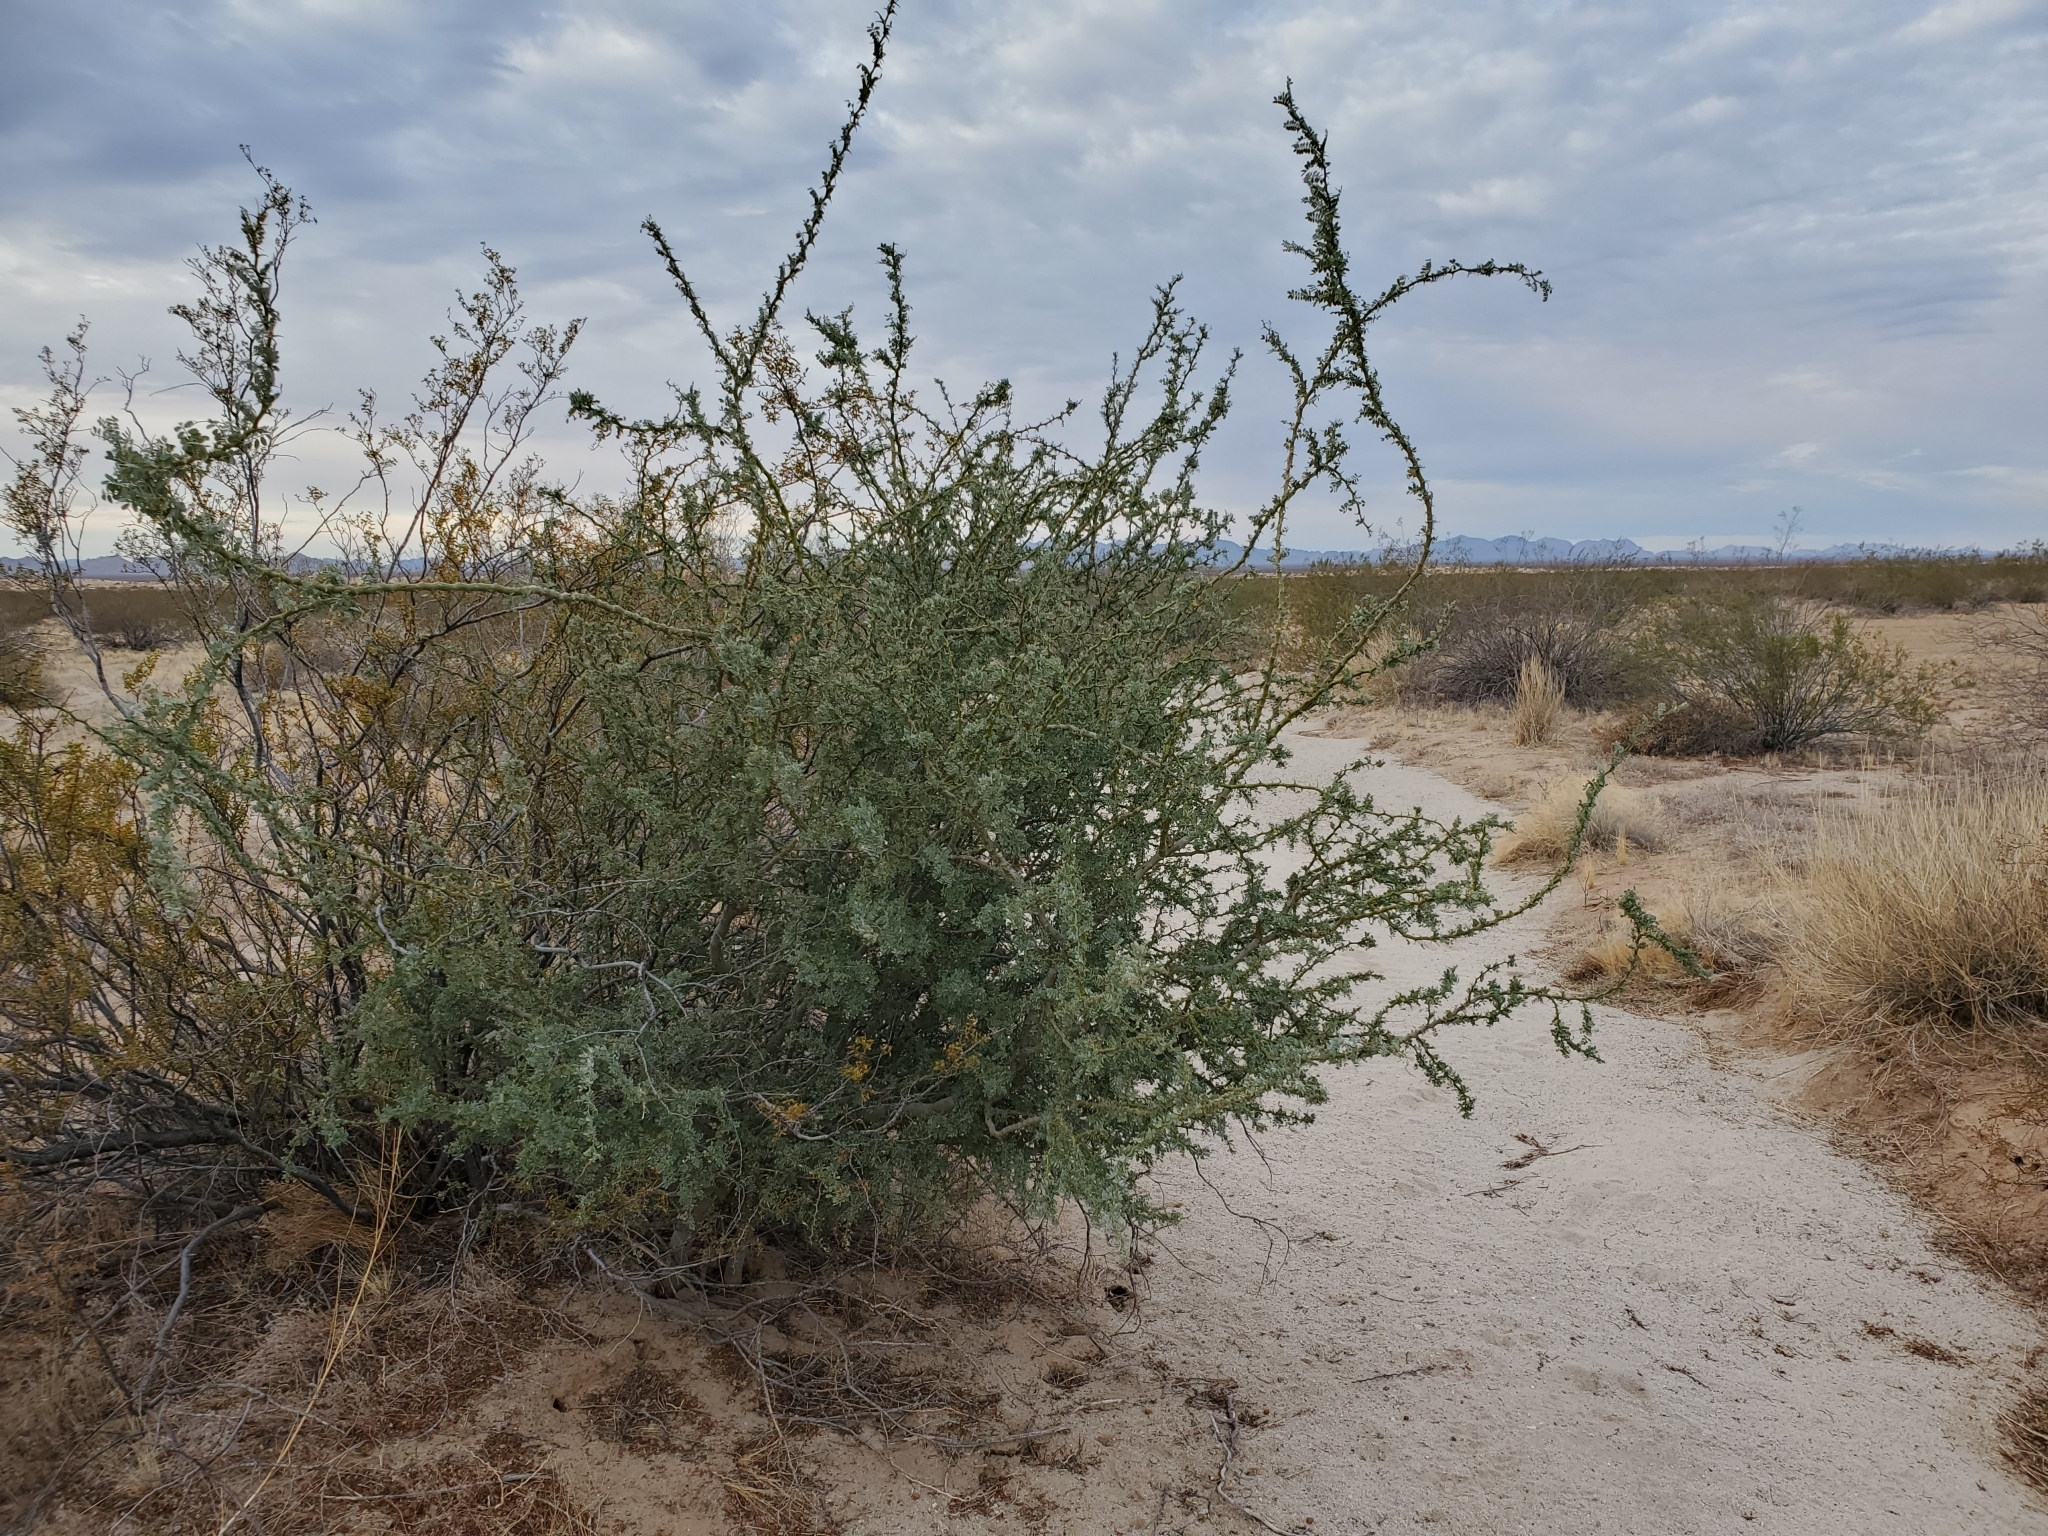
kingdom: Plantae
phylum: Tracheophyta
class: Magnoliopsida
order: Fabales
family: Fabaceae
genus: Olneya
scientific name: Olneya tesota
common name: Desert ironwood
